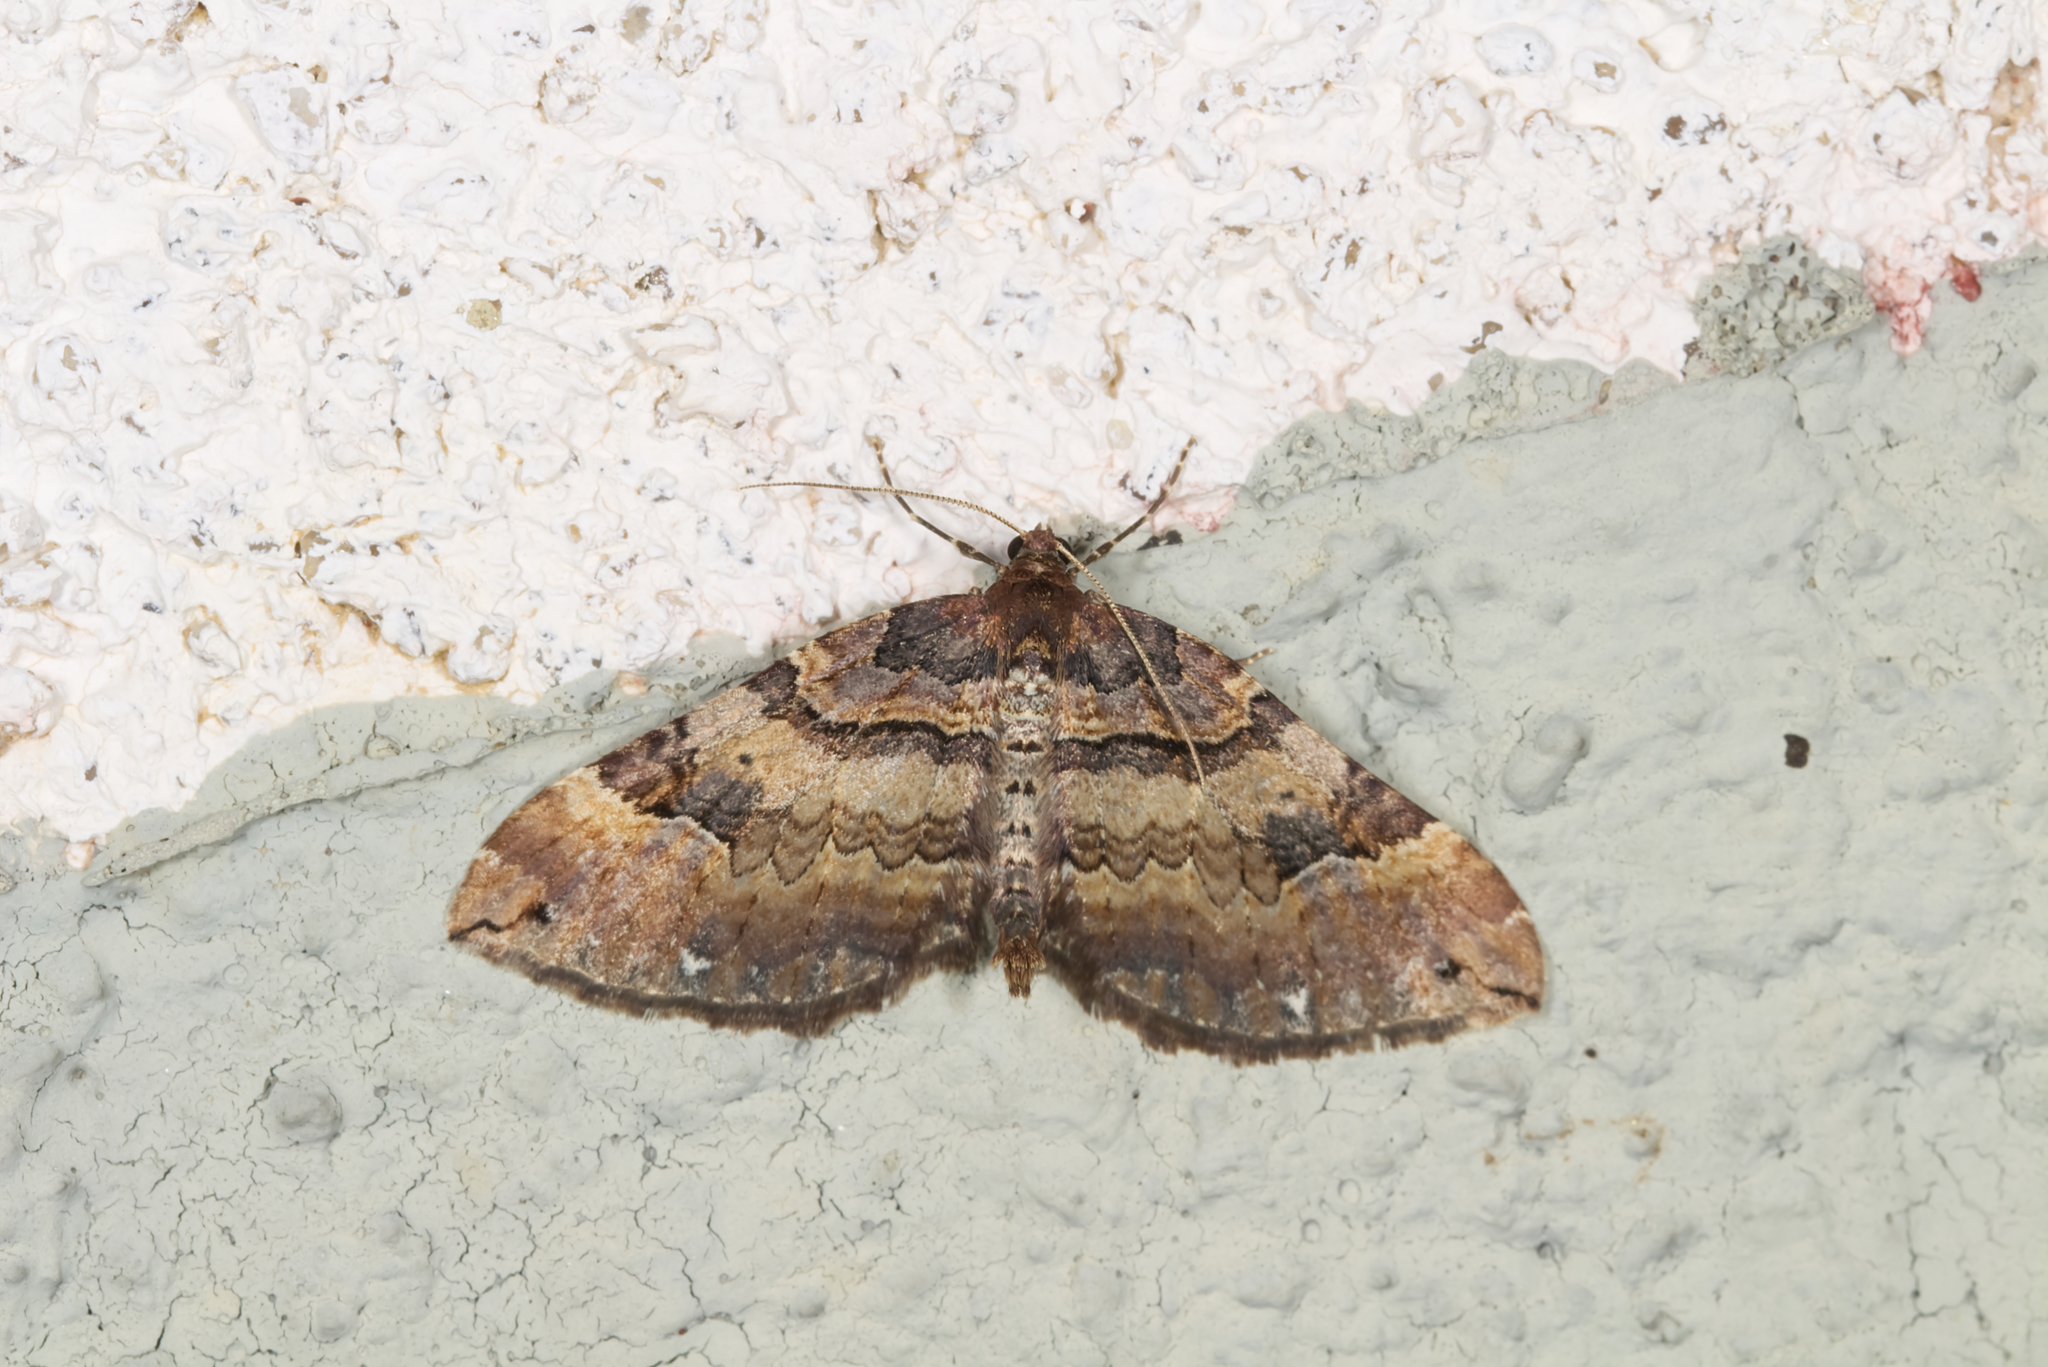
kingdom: Animalia
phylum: Arthropoda
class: Insecta
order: Lepidoptera
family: Geometridae
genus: Anticlea
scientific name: Anticlea badiata
